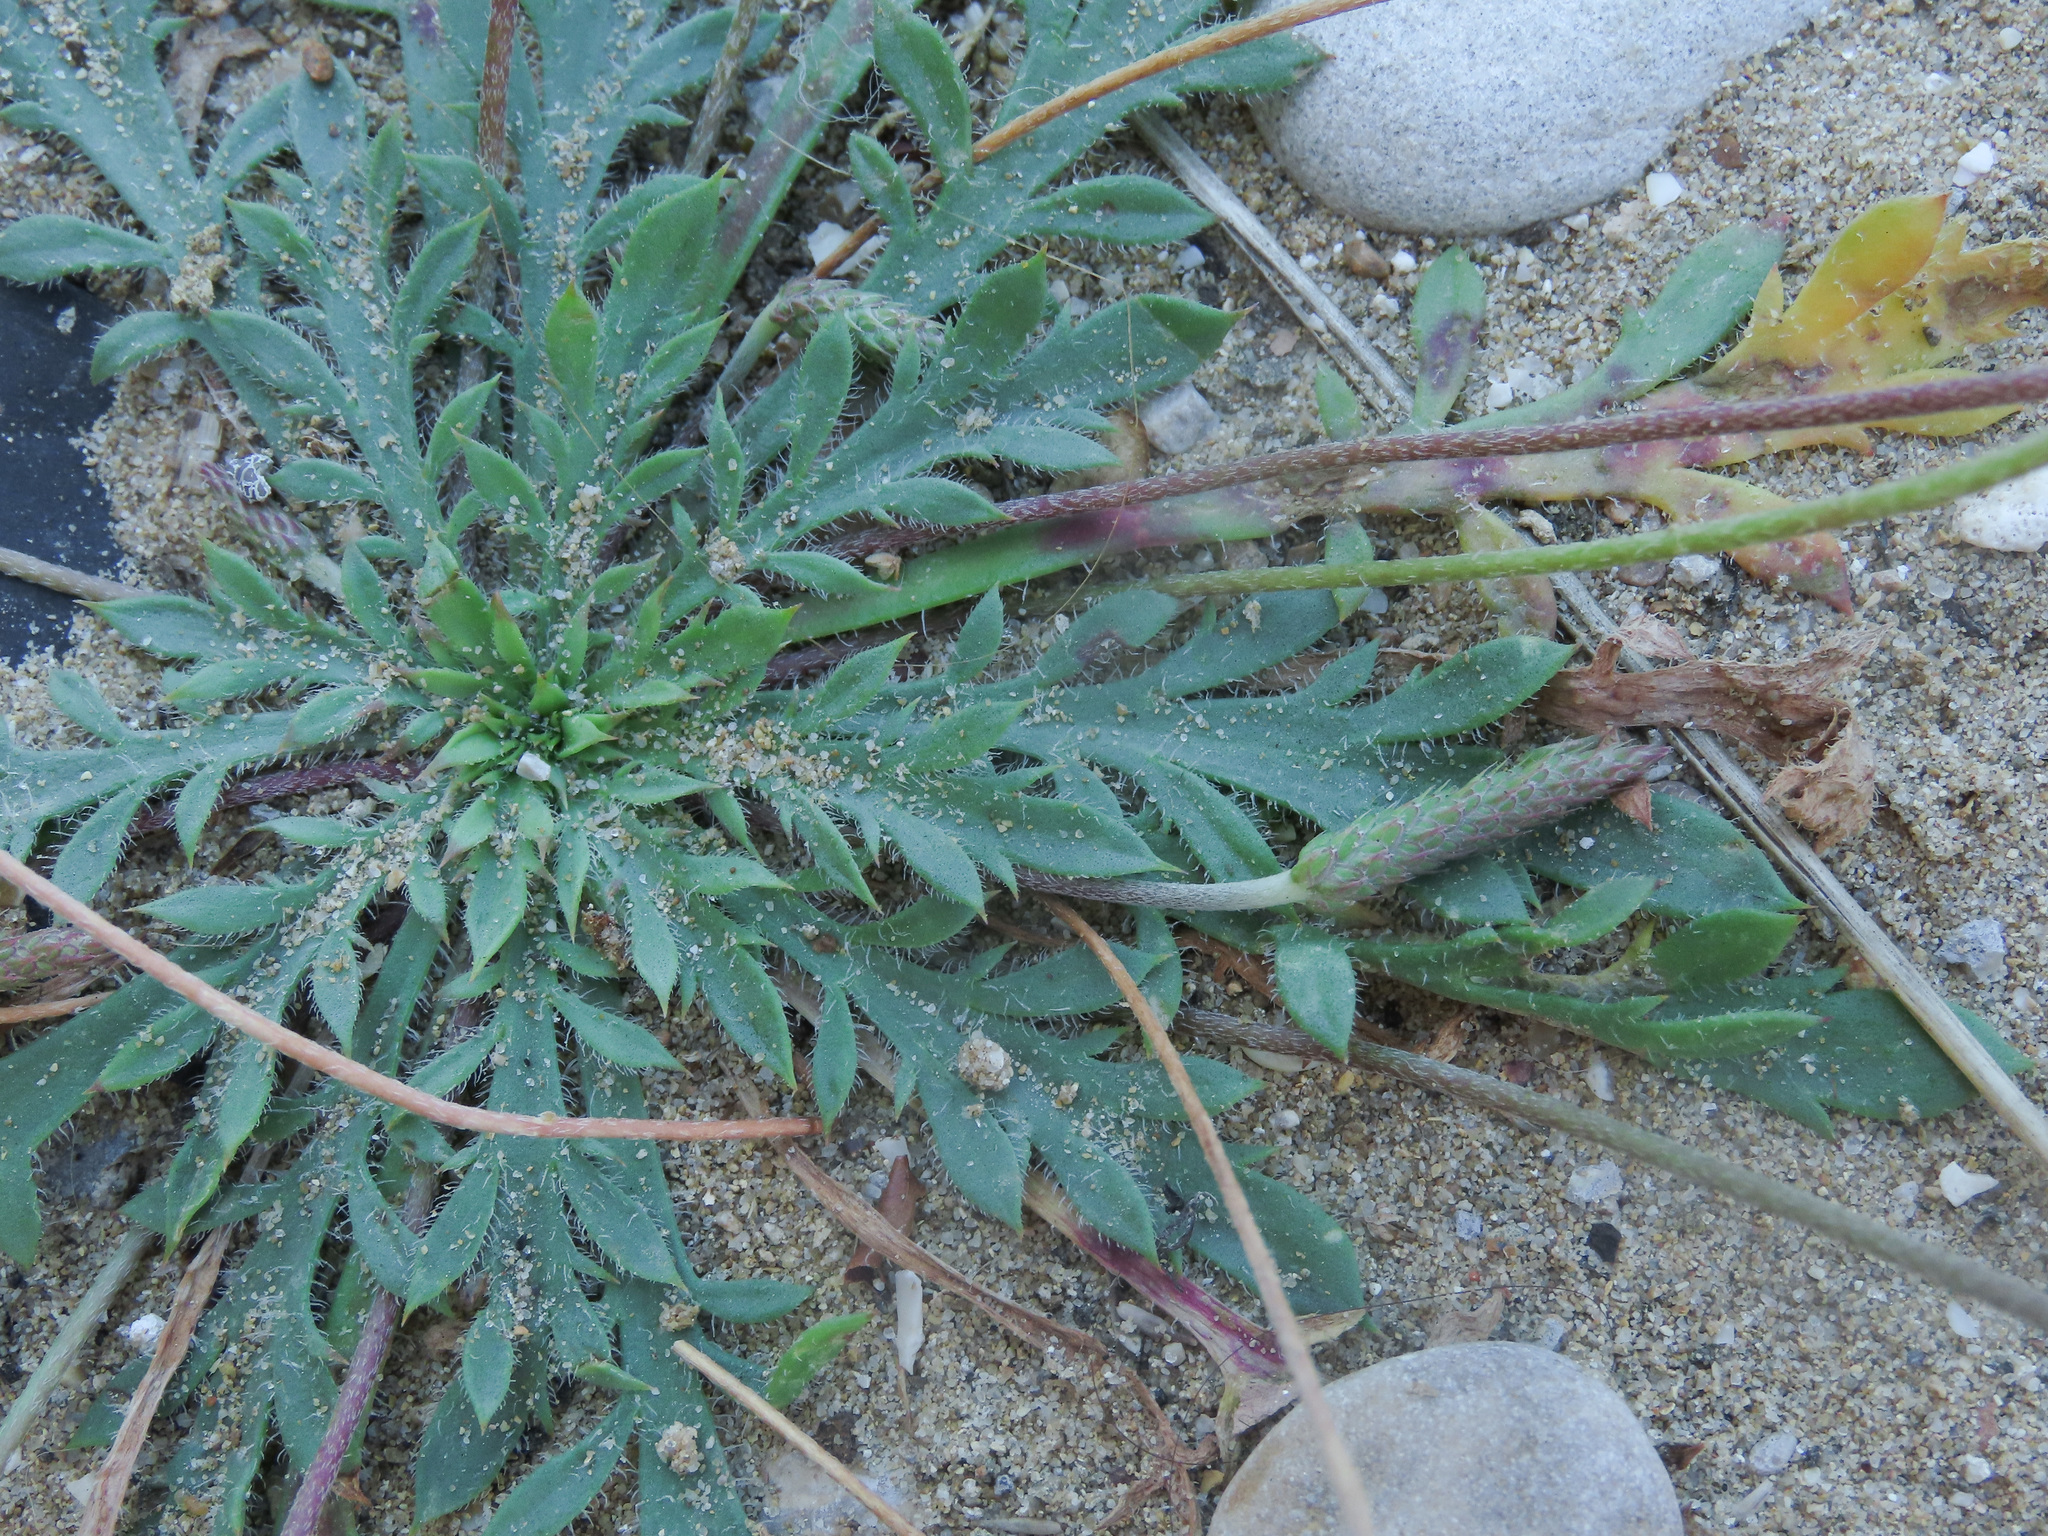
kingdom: Plantae
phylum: Tracheophyta
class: Magnoliopsida
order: Lamiales
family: Plantaginaceae
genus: Plantago
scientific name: Plantago coronopus
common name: Buck's-horn plantain
